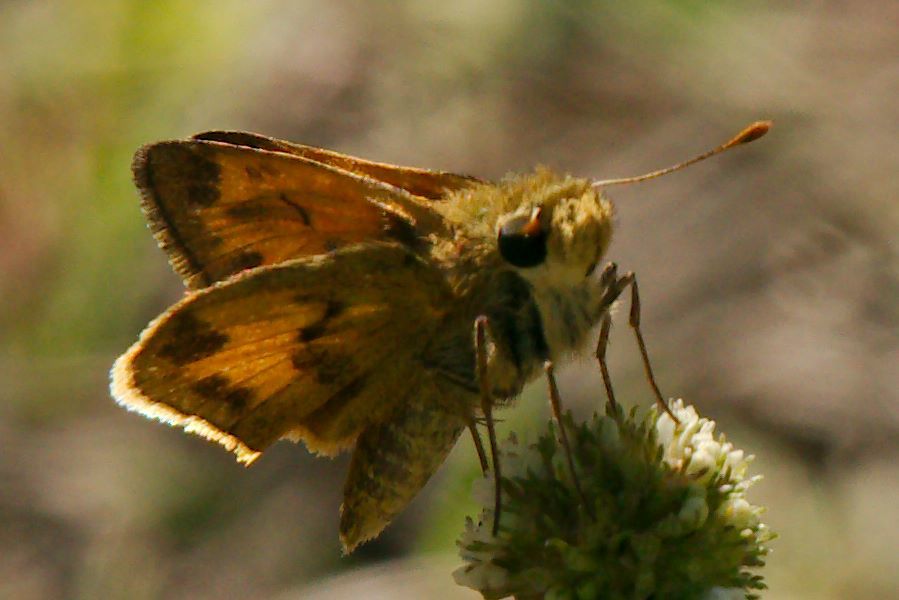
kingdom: Animalia
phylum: Arthropoda
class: Insecta
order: Lepidoptera
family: Hesperiidae
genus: Polites
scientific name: Polites vibex
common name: Whirlabout
